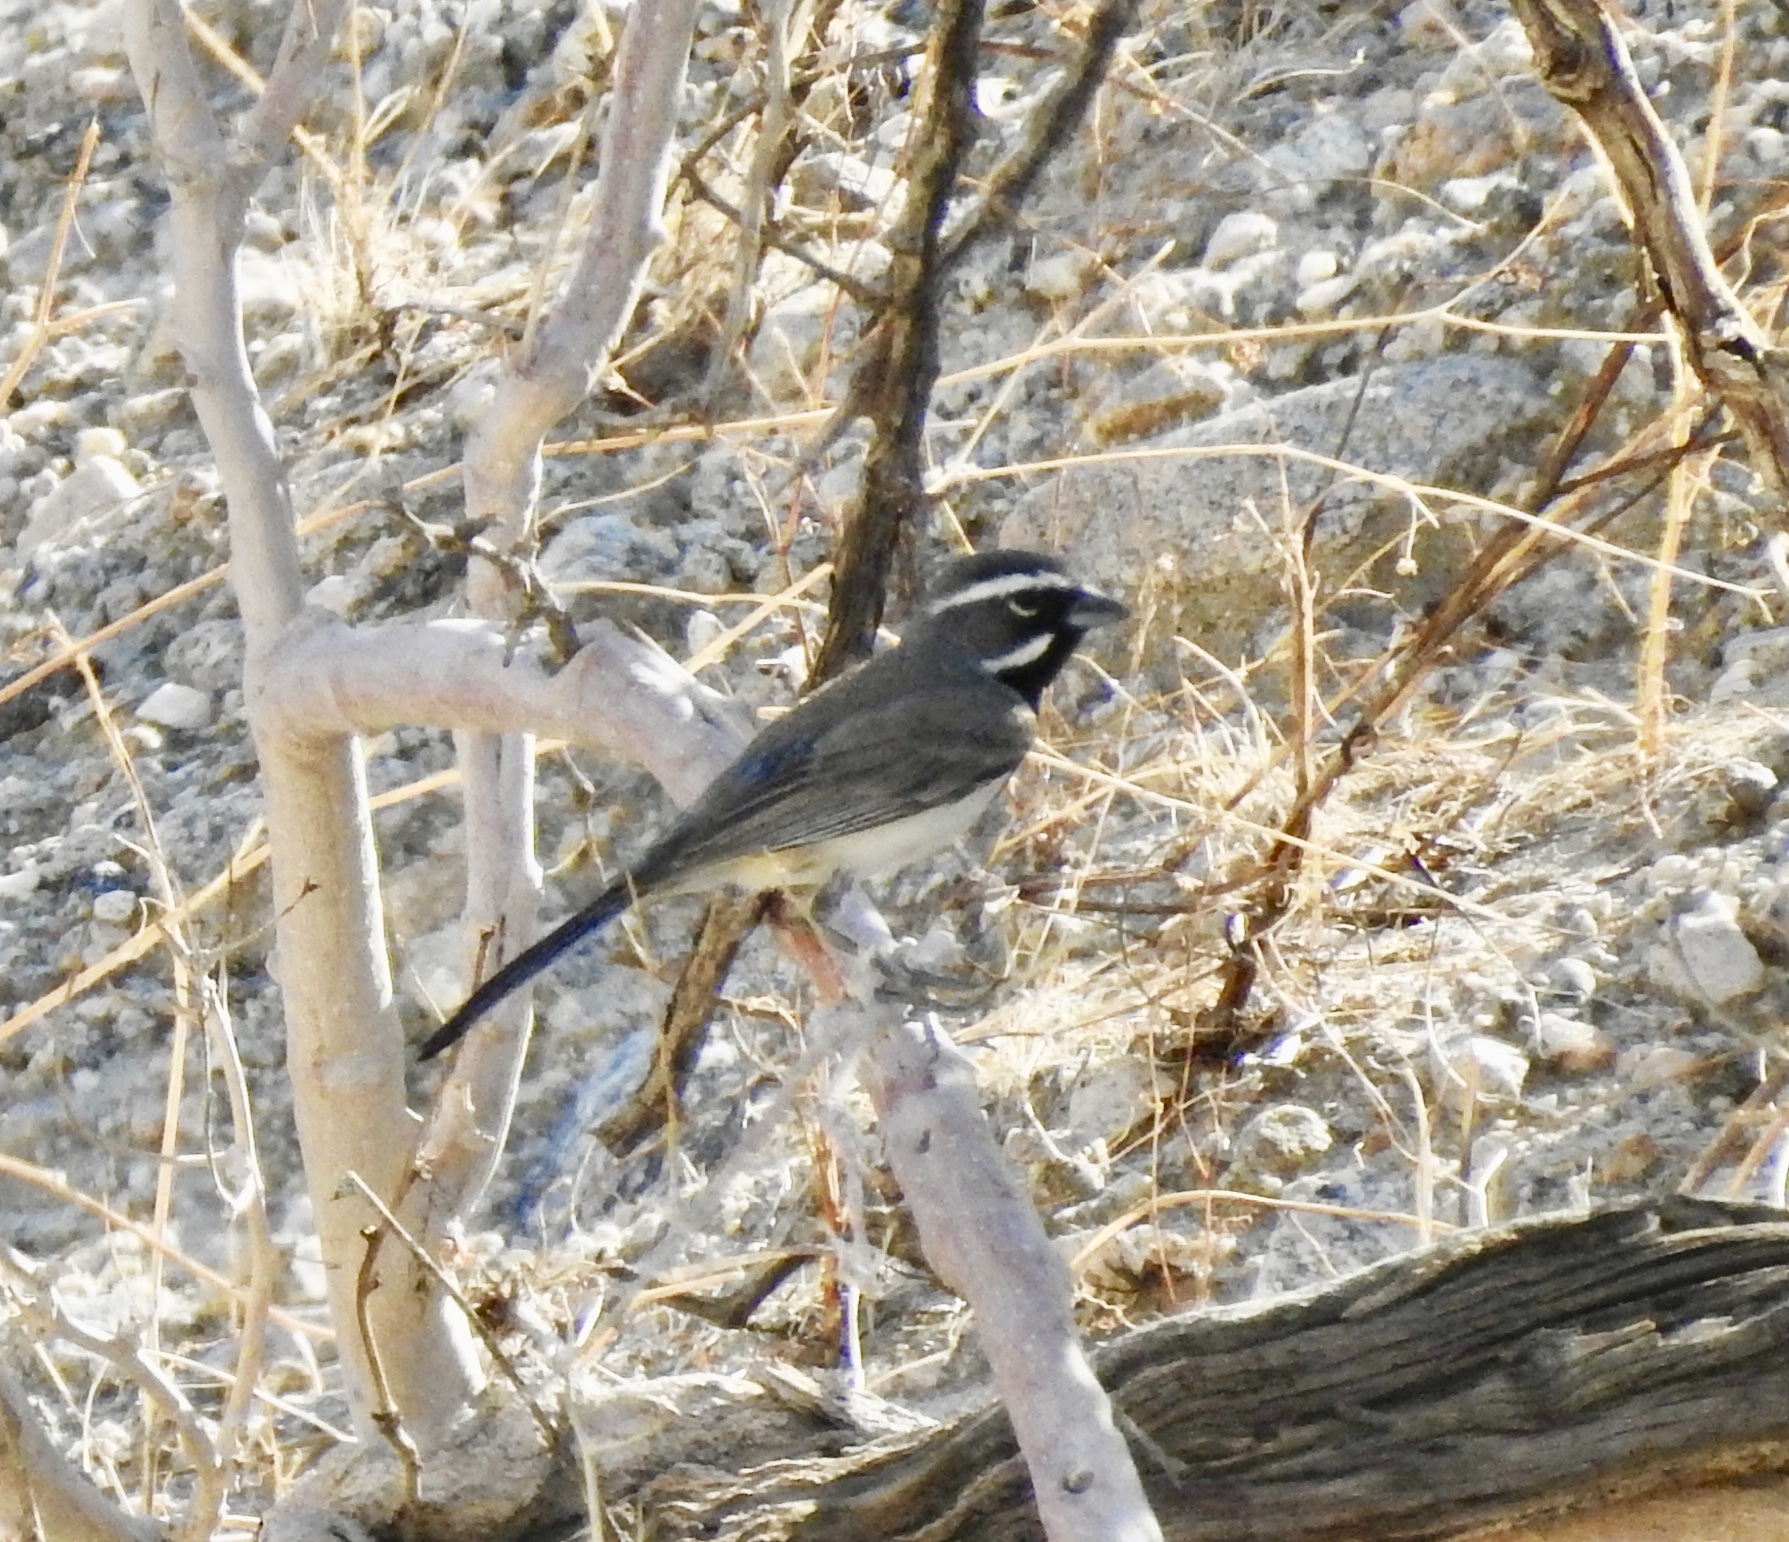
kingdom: Animalia
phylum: Chordata
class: Aves
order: Passeriformes
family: Passerellidae
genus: Amphispiza
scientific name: Amphispiza bilineata
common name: Black-throated sparrow
